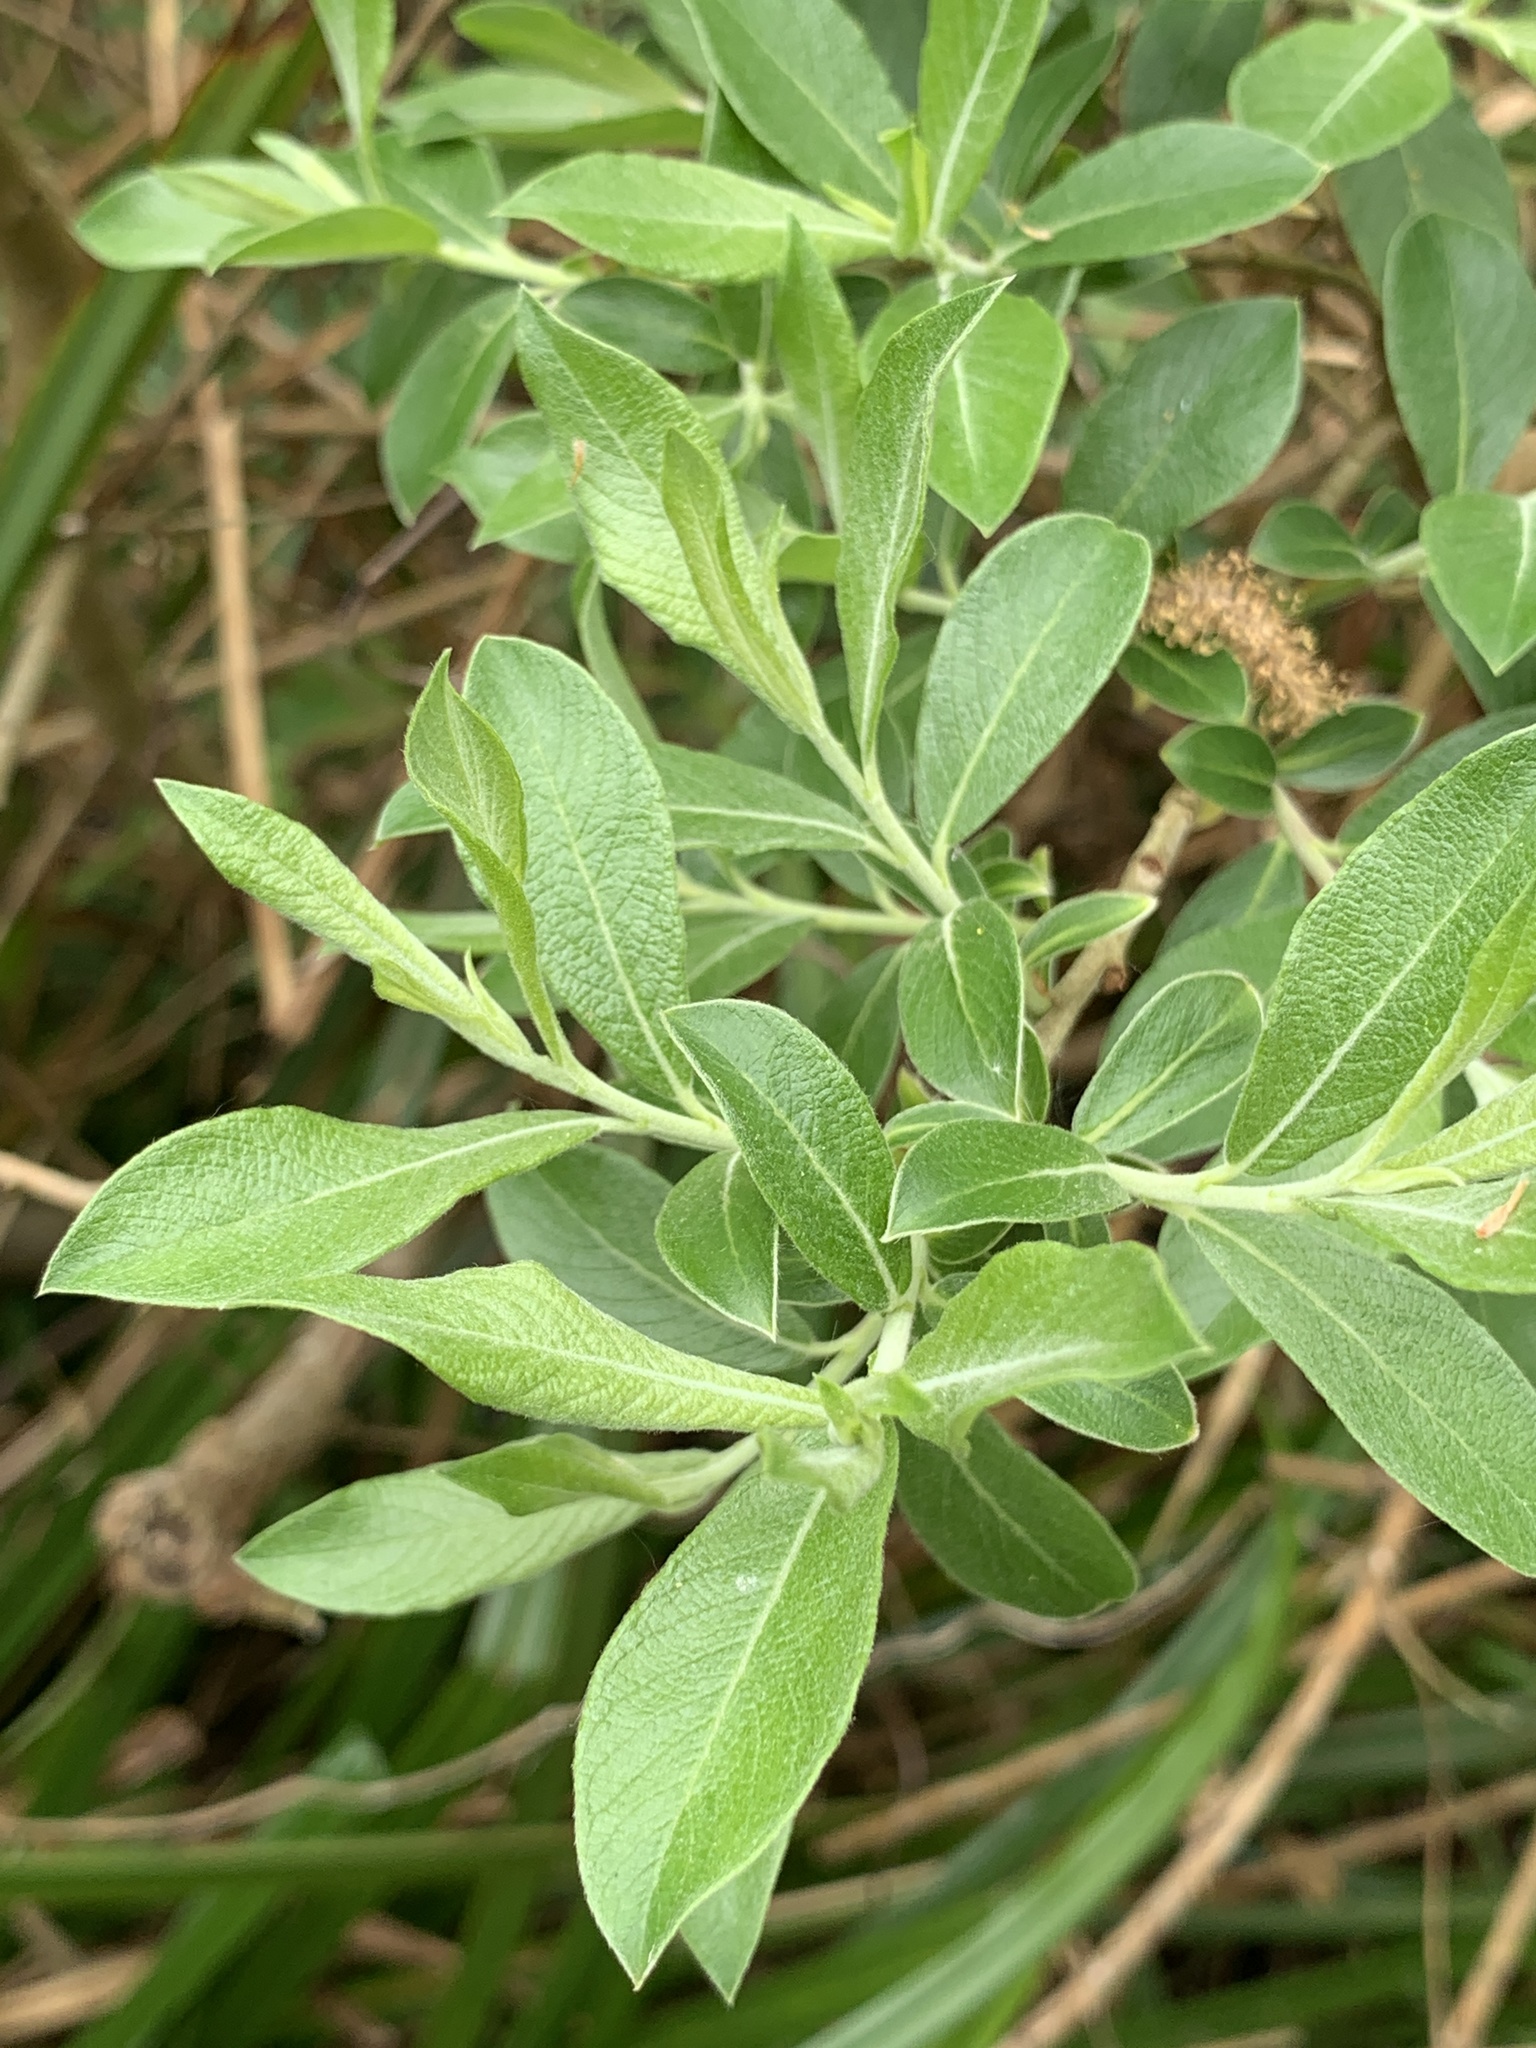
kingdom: Plantae
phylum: Tracheophyta
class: Magnoliopsida
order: Malpighiales
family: Salicaceae
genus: Salix
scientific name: Salix cinerea
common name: Common sallow
